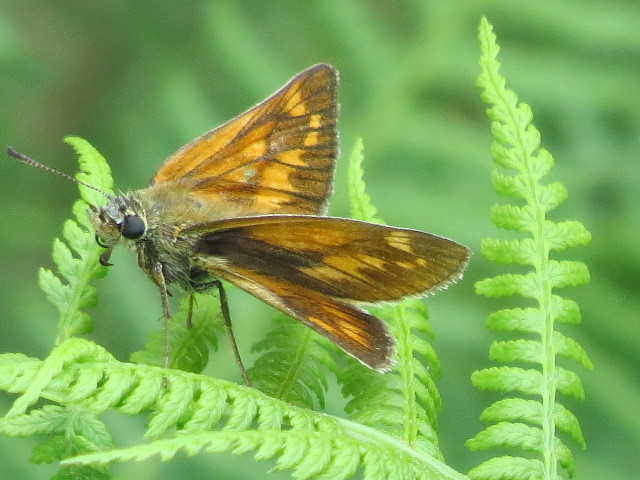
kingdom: Animalia
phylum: Arthropoda
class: Insecta
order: Lepidoptera
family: Hesperiidae
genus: Ochlodes
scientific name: Ochlodes venata
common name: Large skipper
